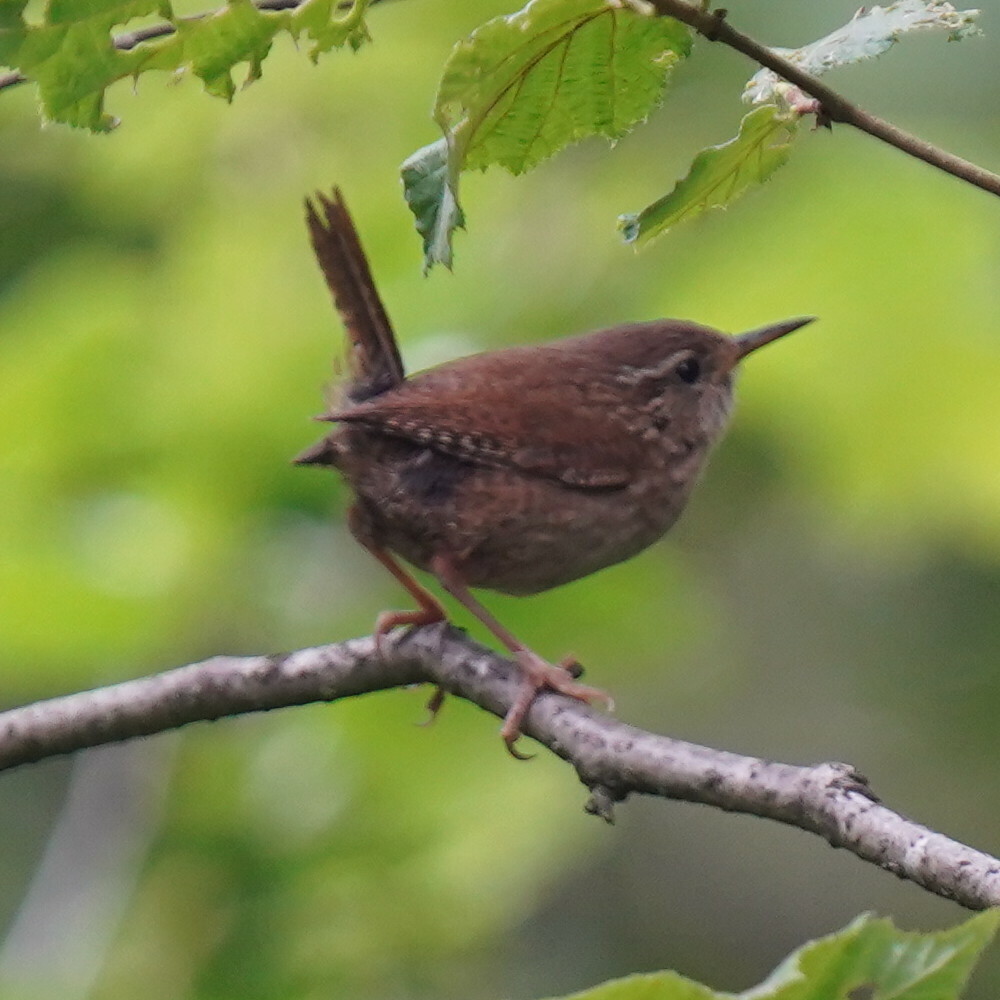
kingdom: Animalia
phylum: Chordata
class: Aves
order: Passeriformes
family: Troglodytidae
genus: Troglodytes
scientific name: Troglodytes troglodytes
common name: Eurasian wren
